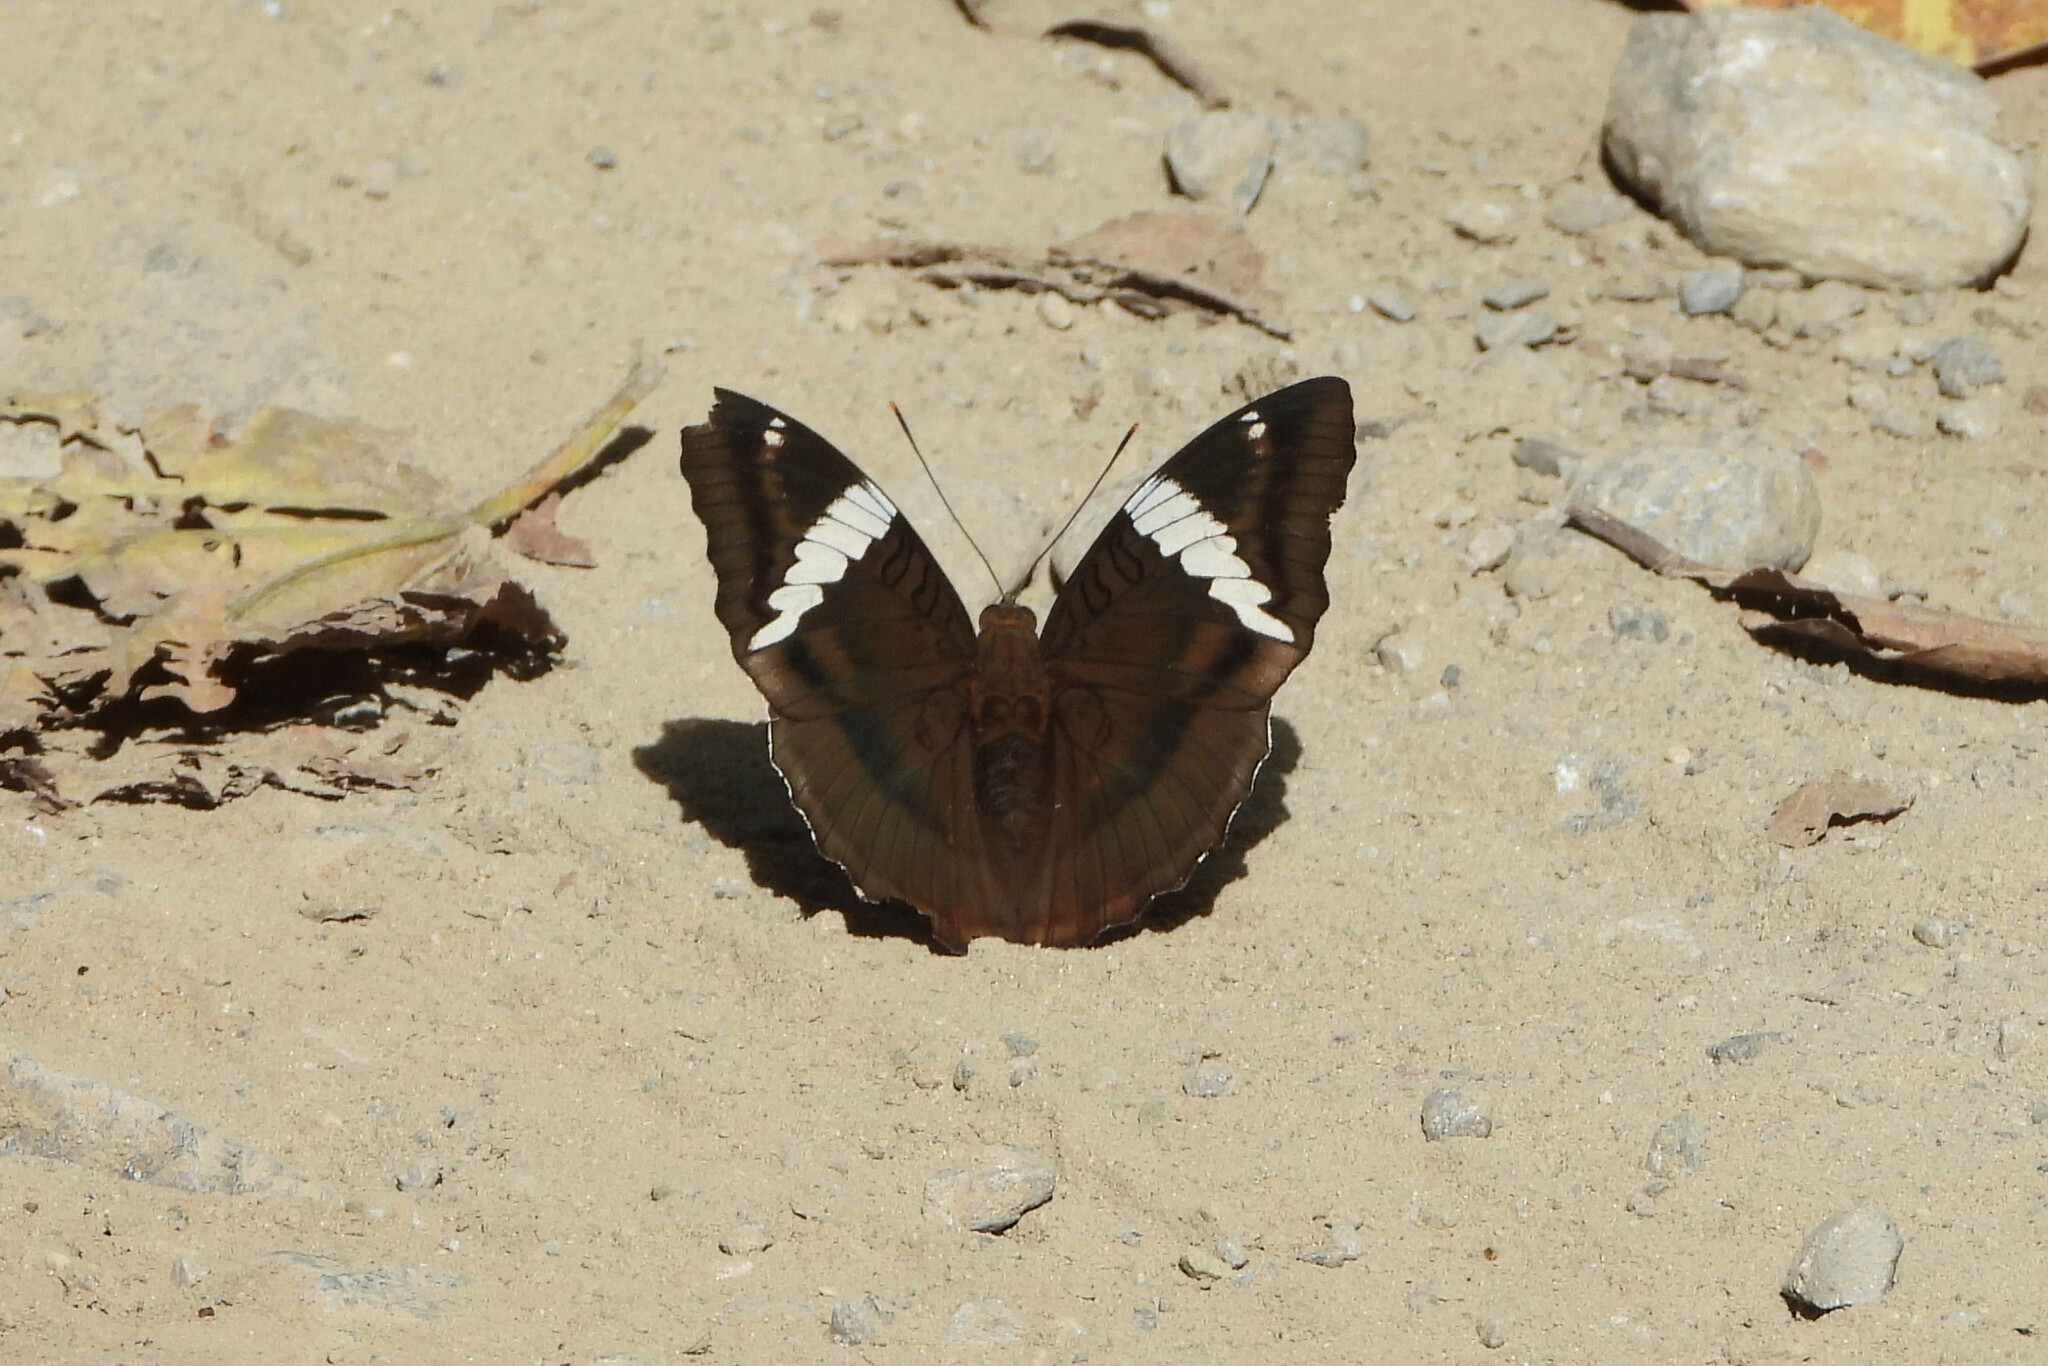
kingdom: Animalia
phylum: Arthropoda
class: Insecta
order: Lepidoptera
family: Nymphalidae
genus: Euthalia
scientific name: Euthalia phemius
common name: White-edged blue baron
